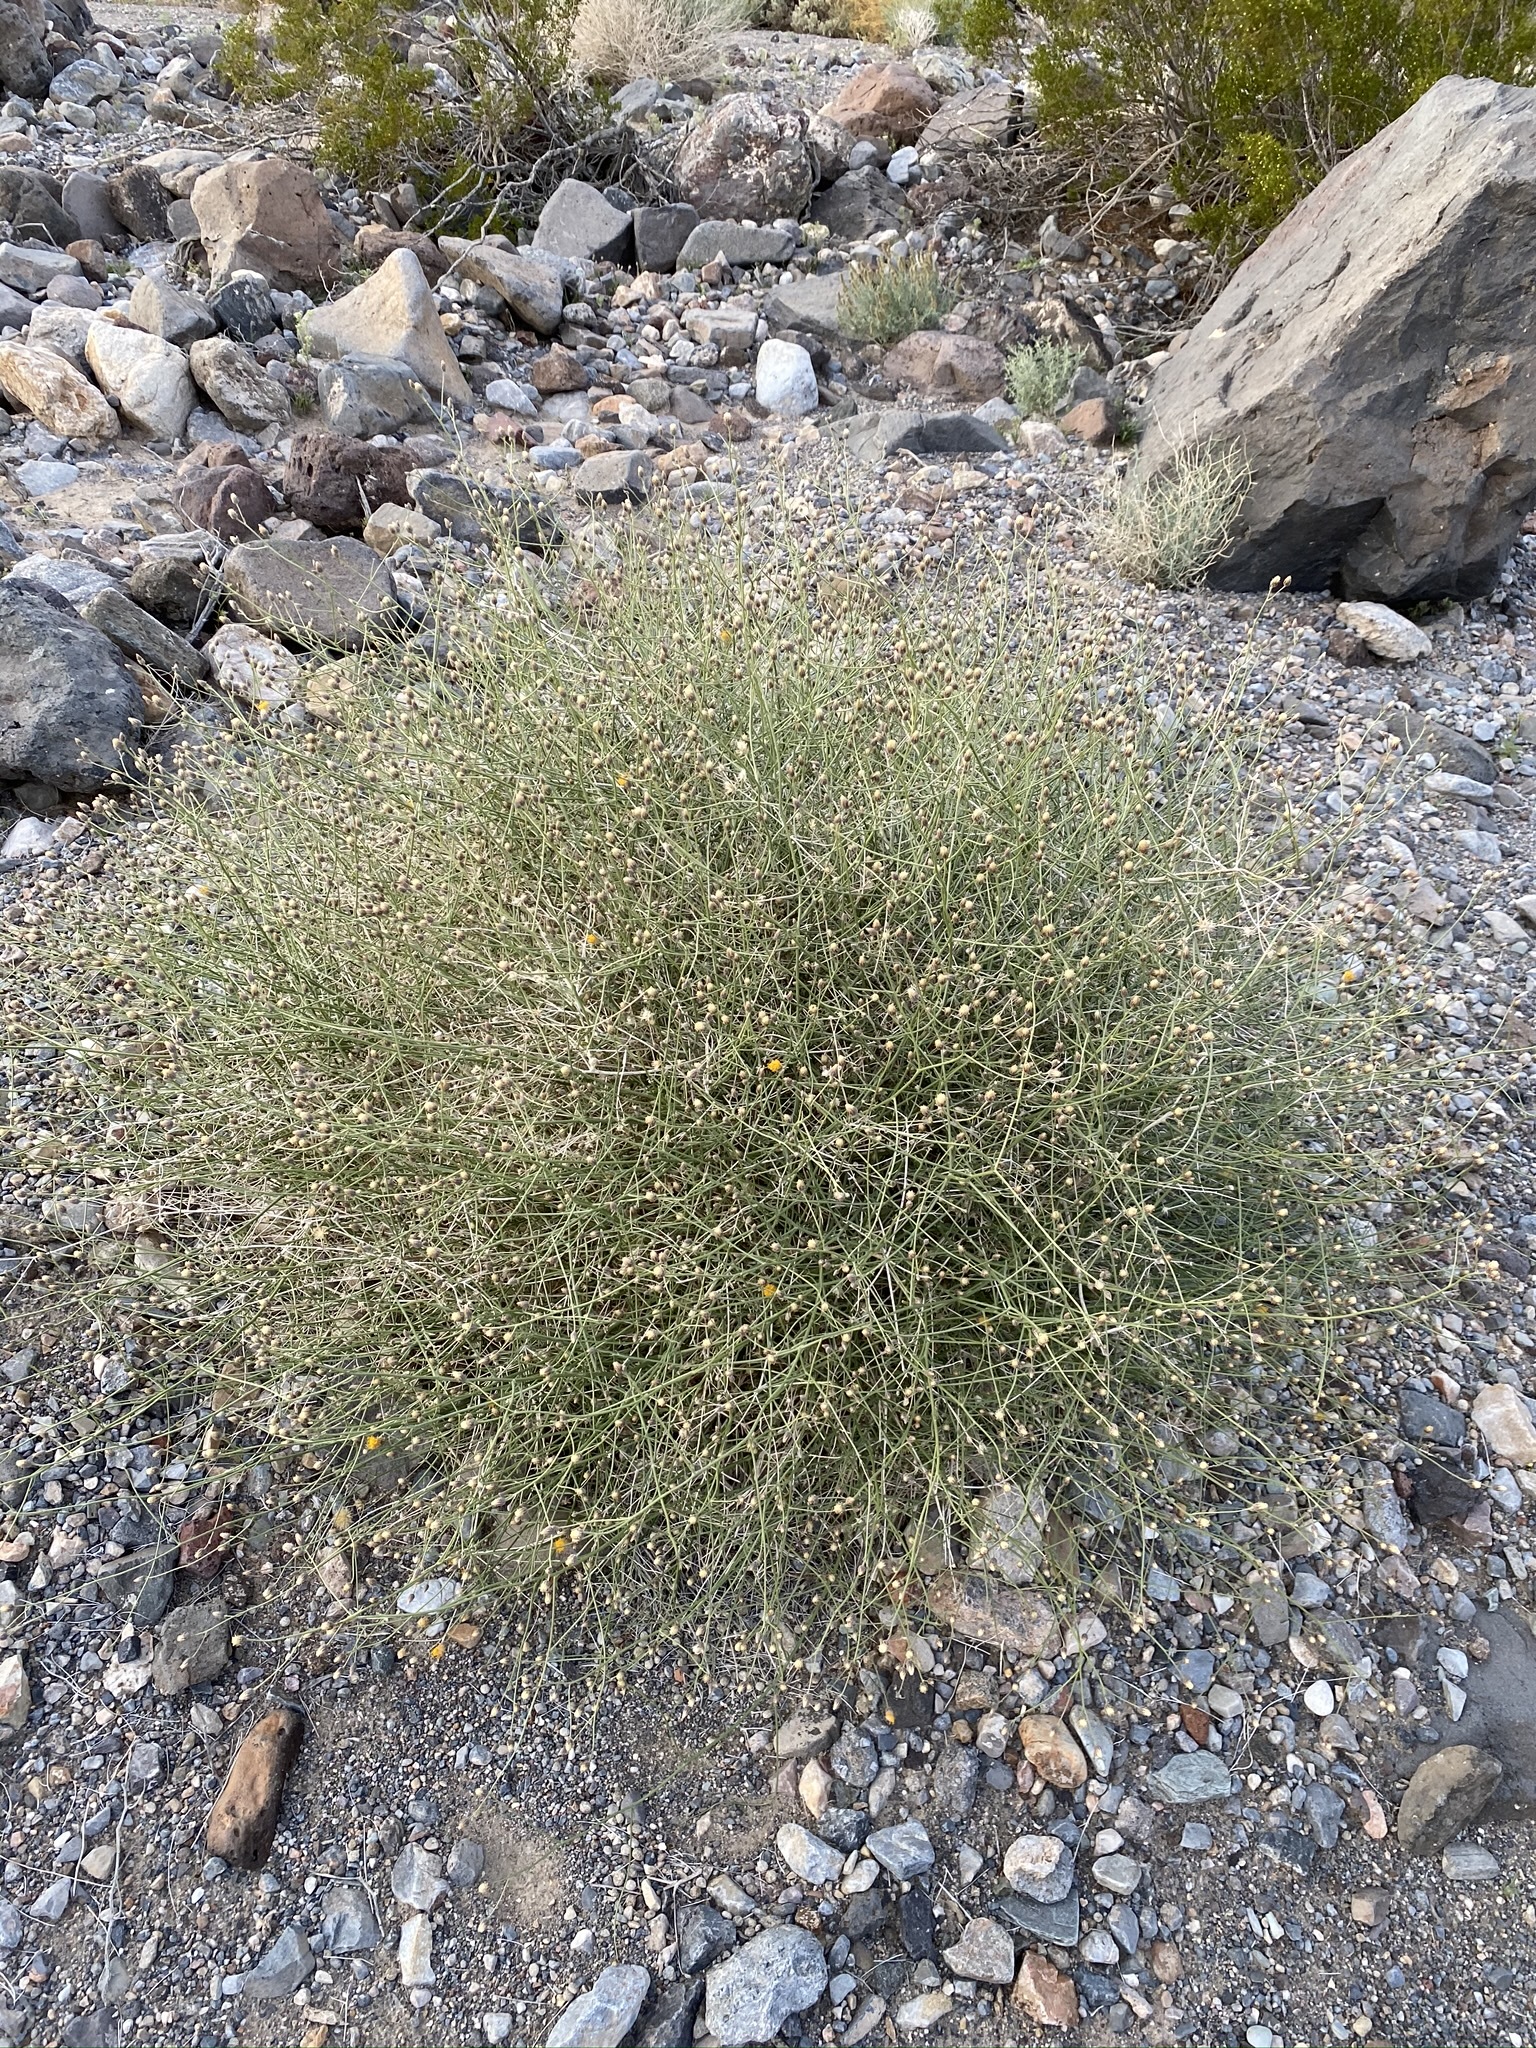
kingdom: Plantae
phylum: Tracheophyta
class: Magnoliopsida
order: Asterales
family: Asteraceae
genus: Bebbia
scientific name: Bebbia juncea
